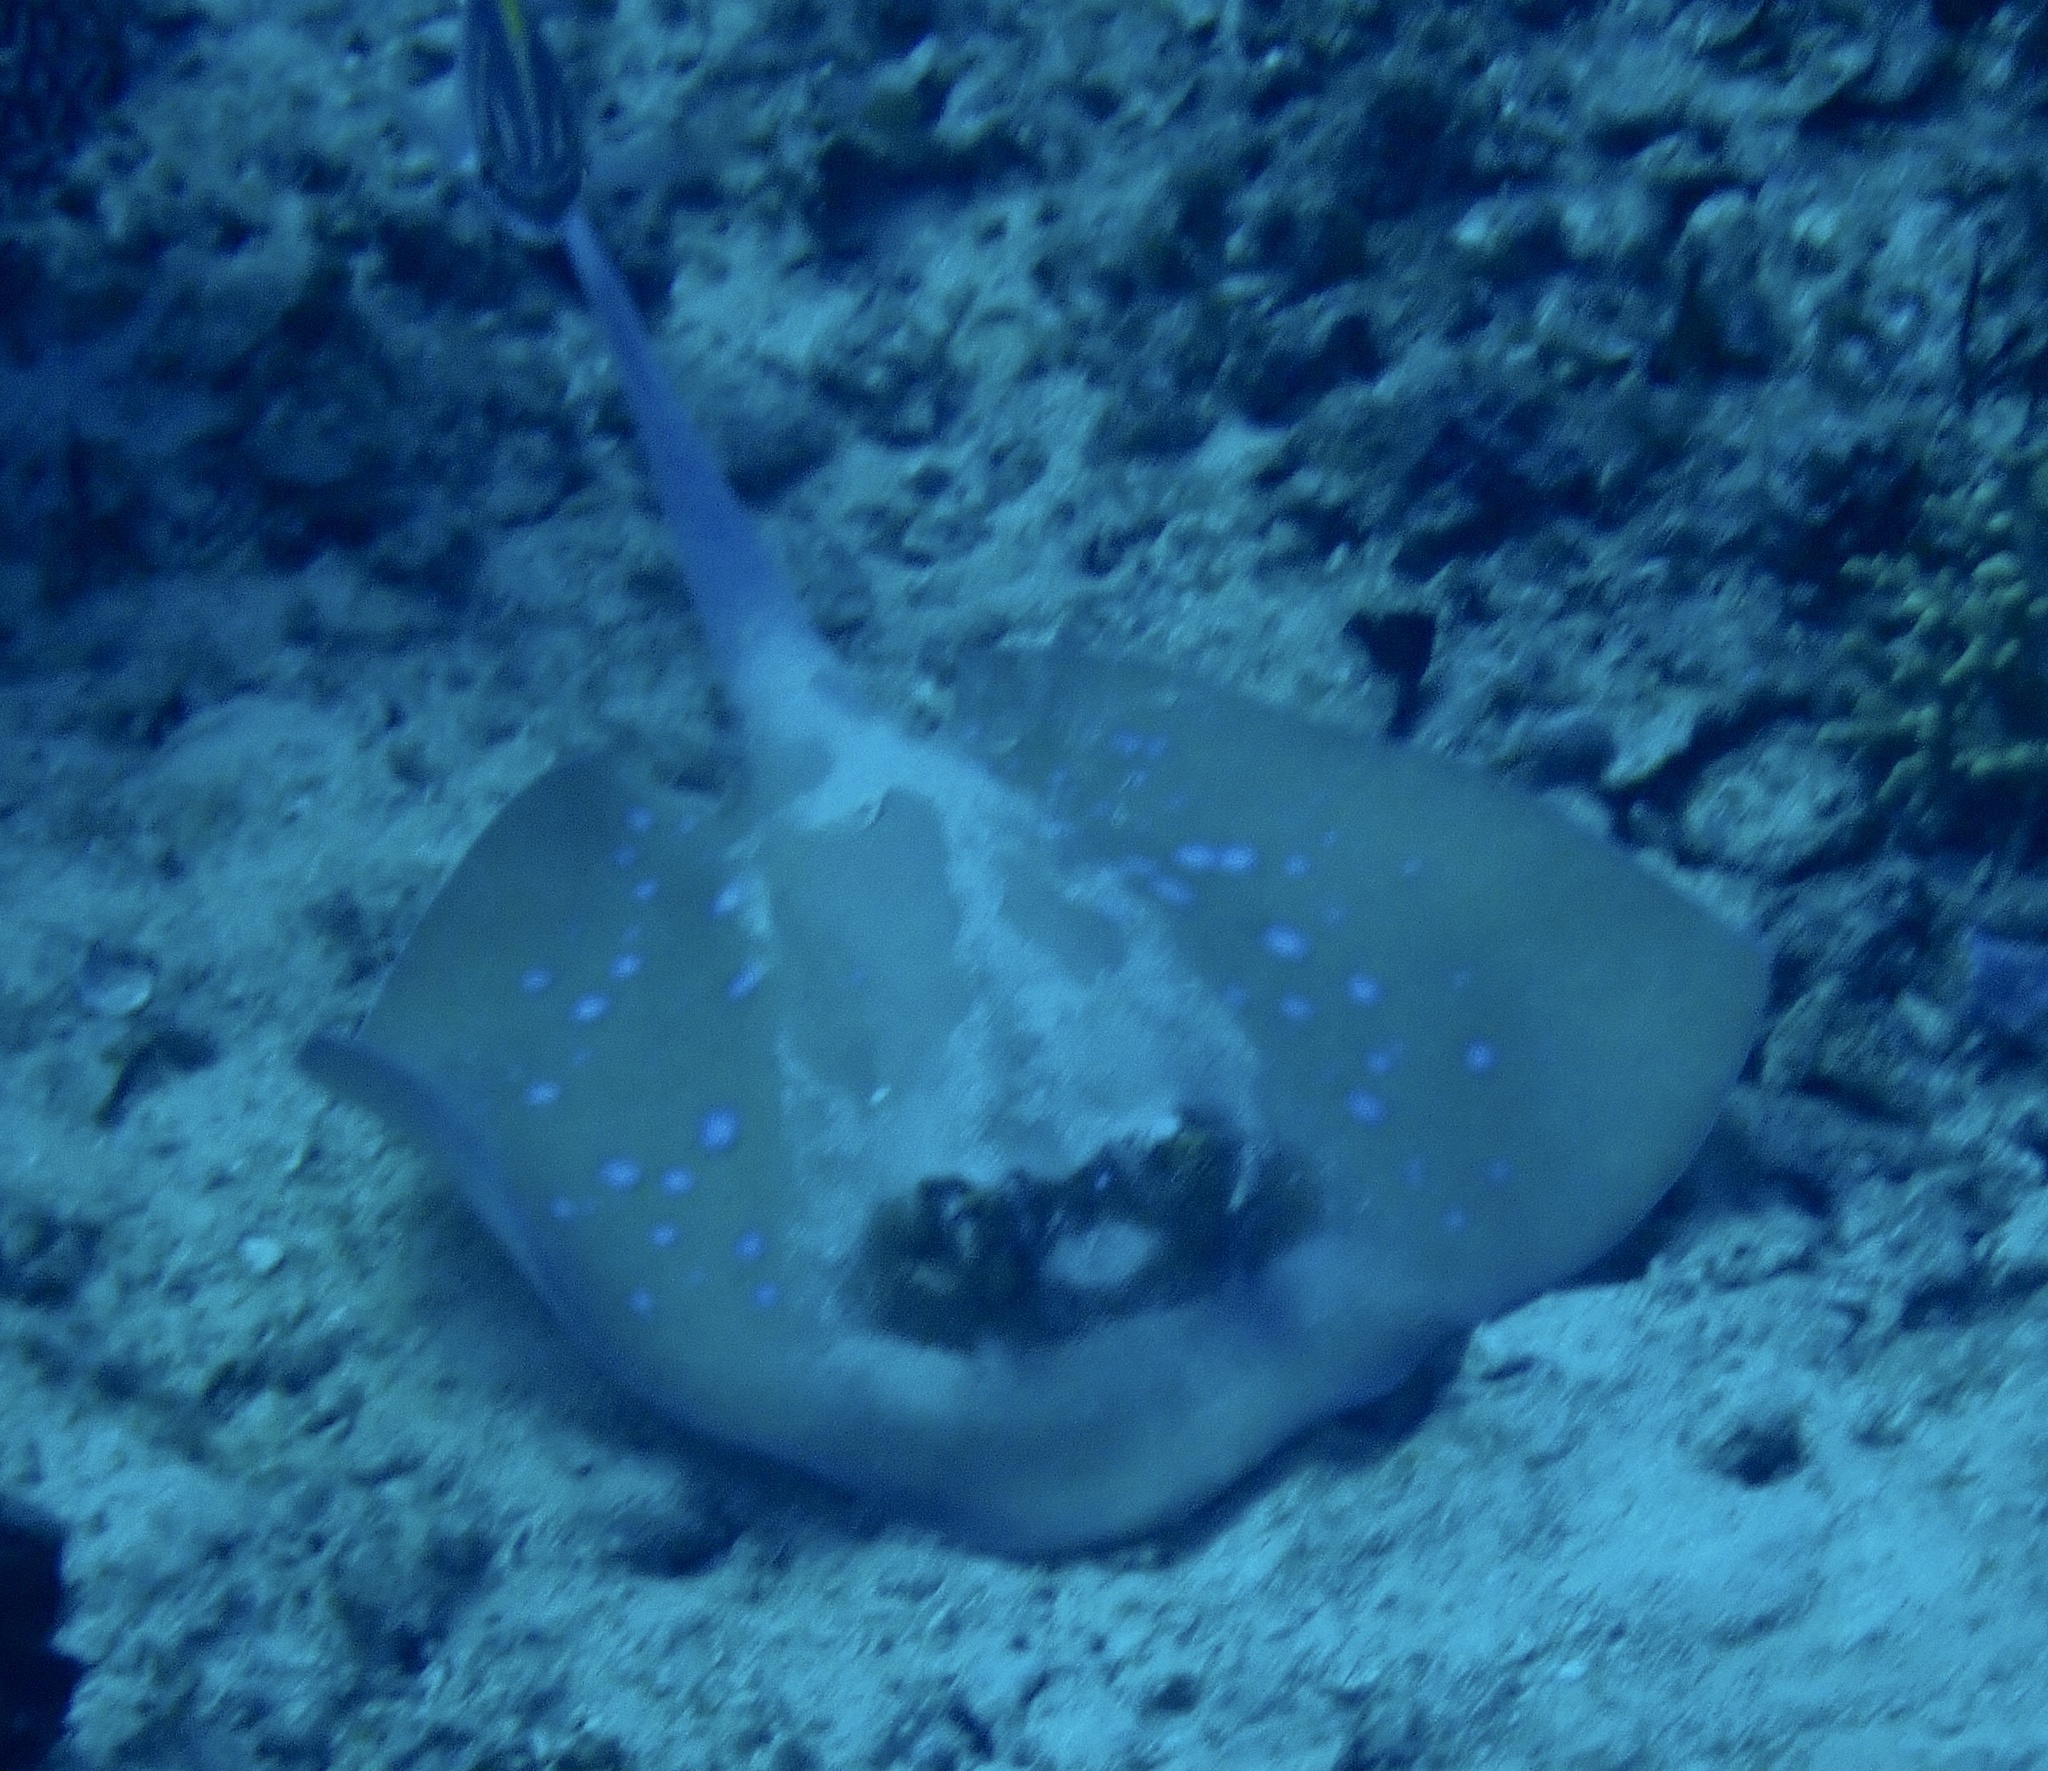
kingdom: Animalia
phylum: Chordata
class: Elasmobranchii
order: Myliobatiformes
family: Dasyatidae
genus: Neotrygon
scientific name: Neotrygon moluccensis
